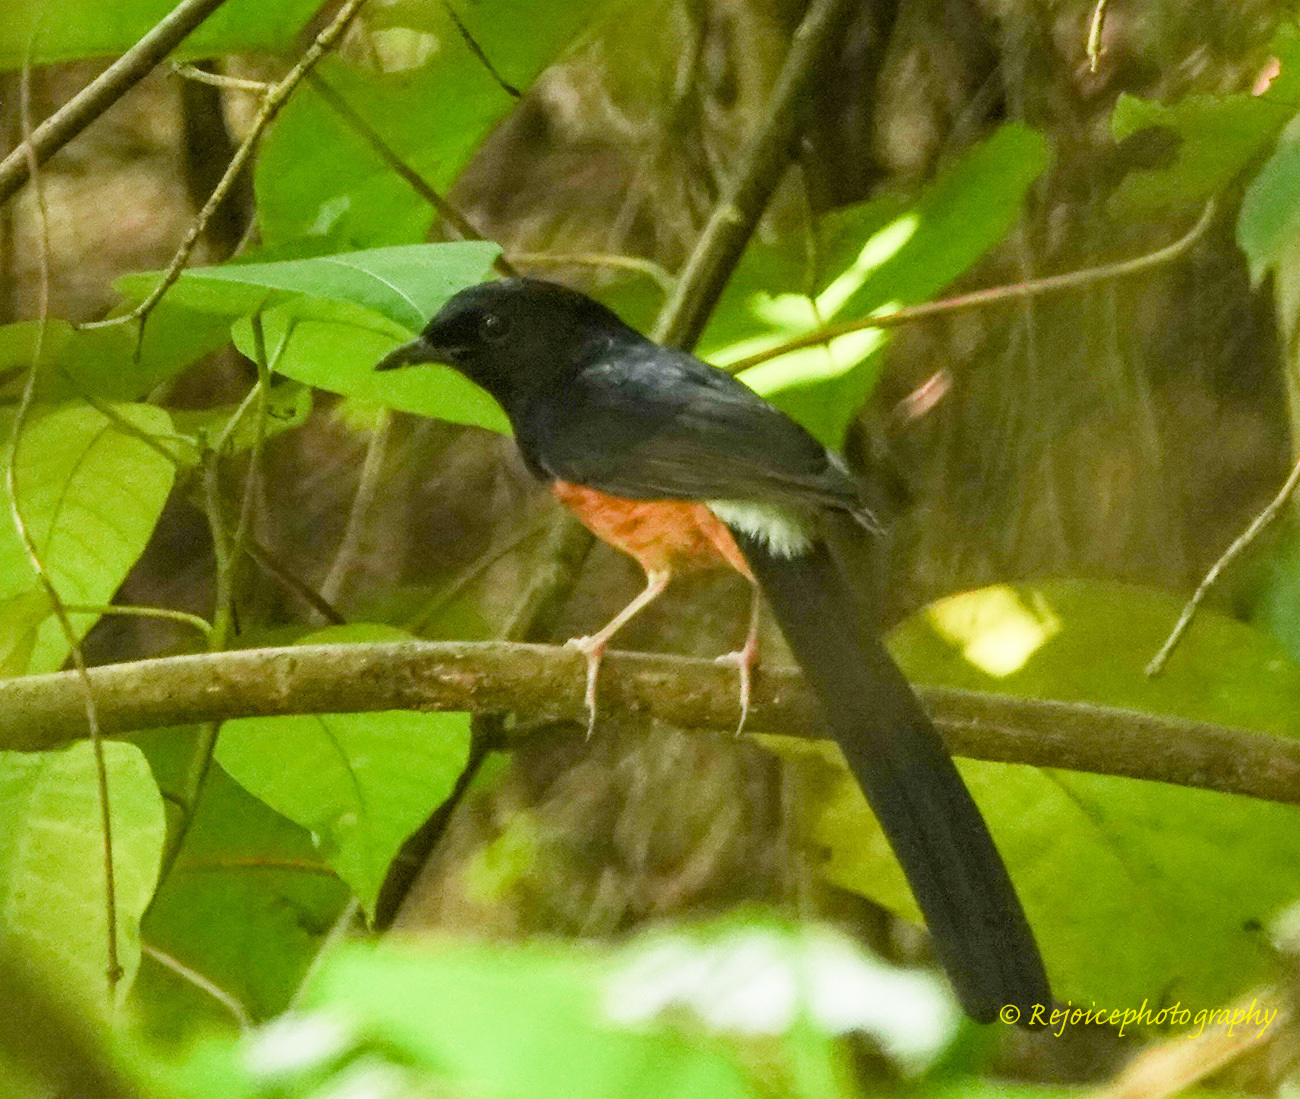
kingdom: Animalia
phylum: Chordata
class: Aves
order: Passeriformes
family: Muscicapidae
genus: Copsychus
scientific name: Copsychus malabaricus
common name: White-rumped shama
